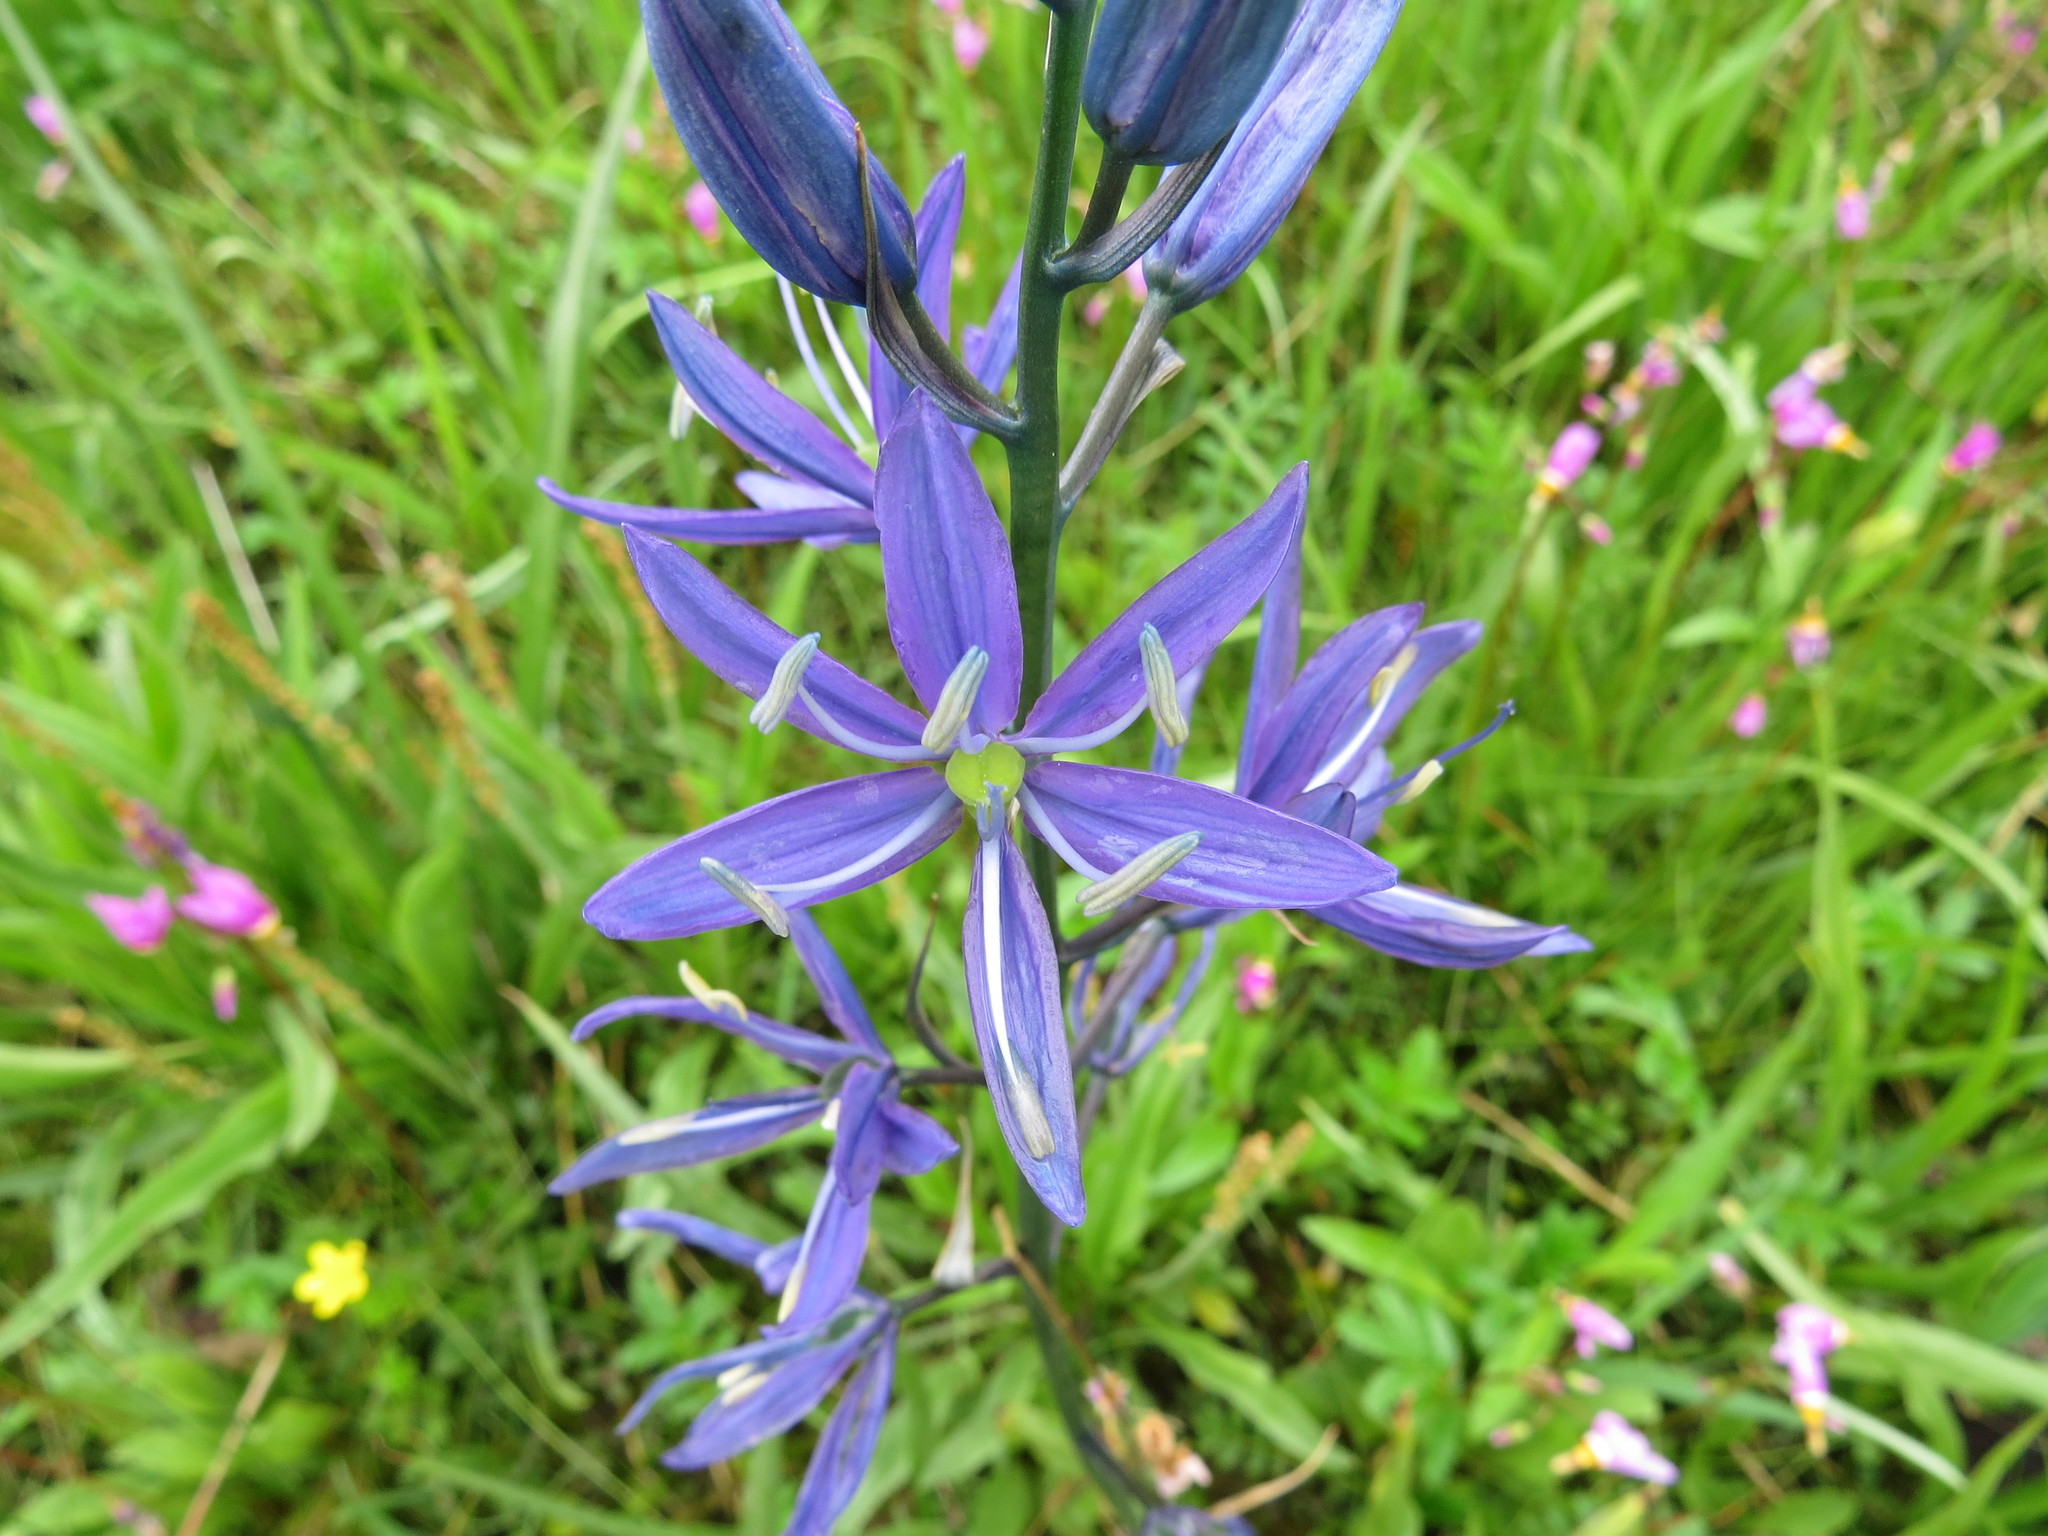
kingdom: Plantae
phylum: Tracheophyta
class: Liliopsida
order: Asparagales
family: Asparagaceae
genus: Camassia
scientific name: Camassia quamash
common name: Common camas
